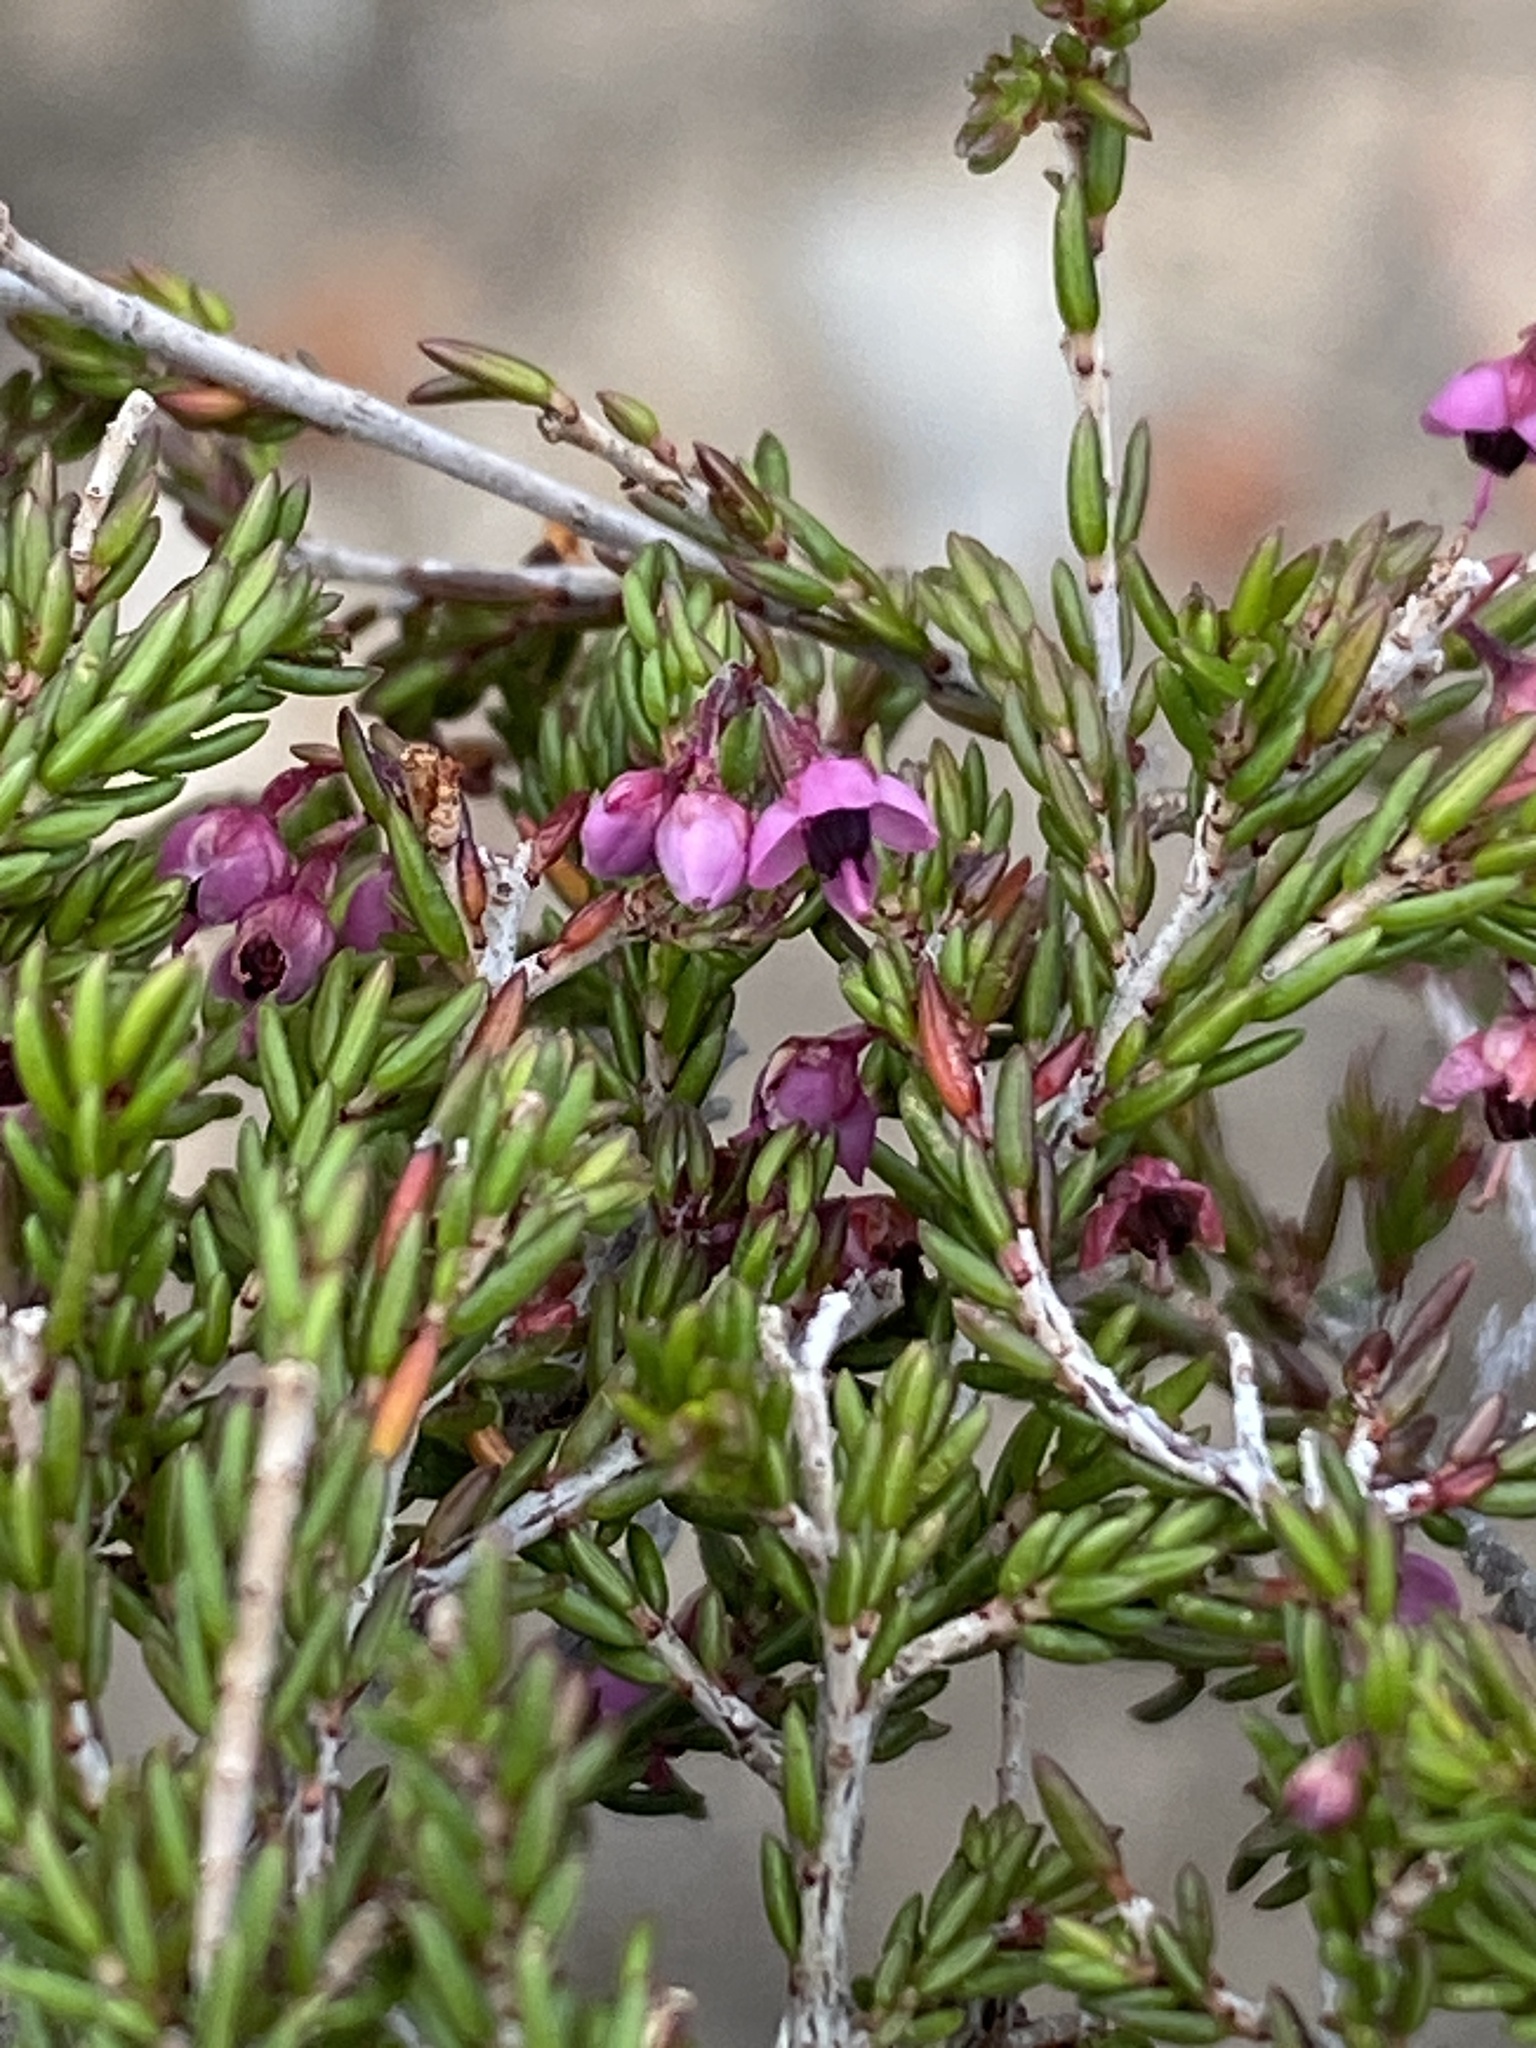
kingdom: Plantae
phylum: Tracheophyta
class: Magnoliopsida
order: Ericales
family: Ericaceae
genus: Erica
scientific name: Erica zebrensis
